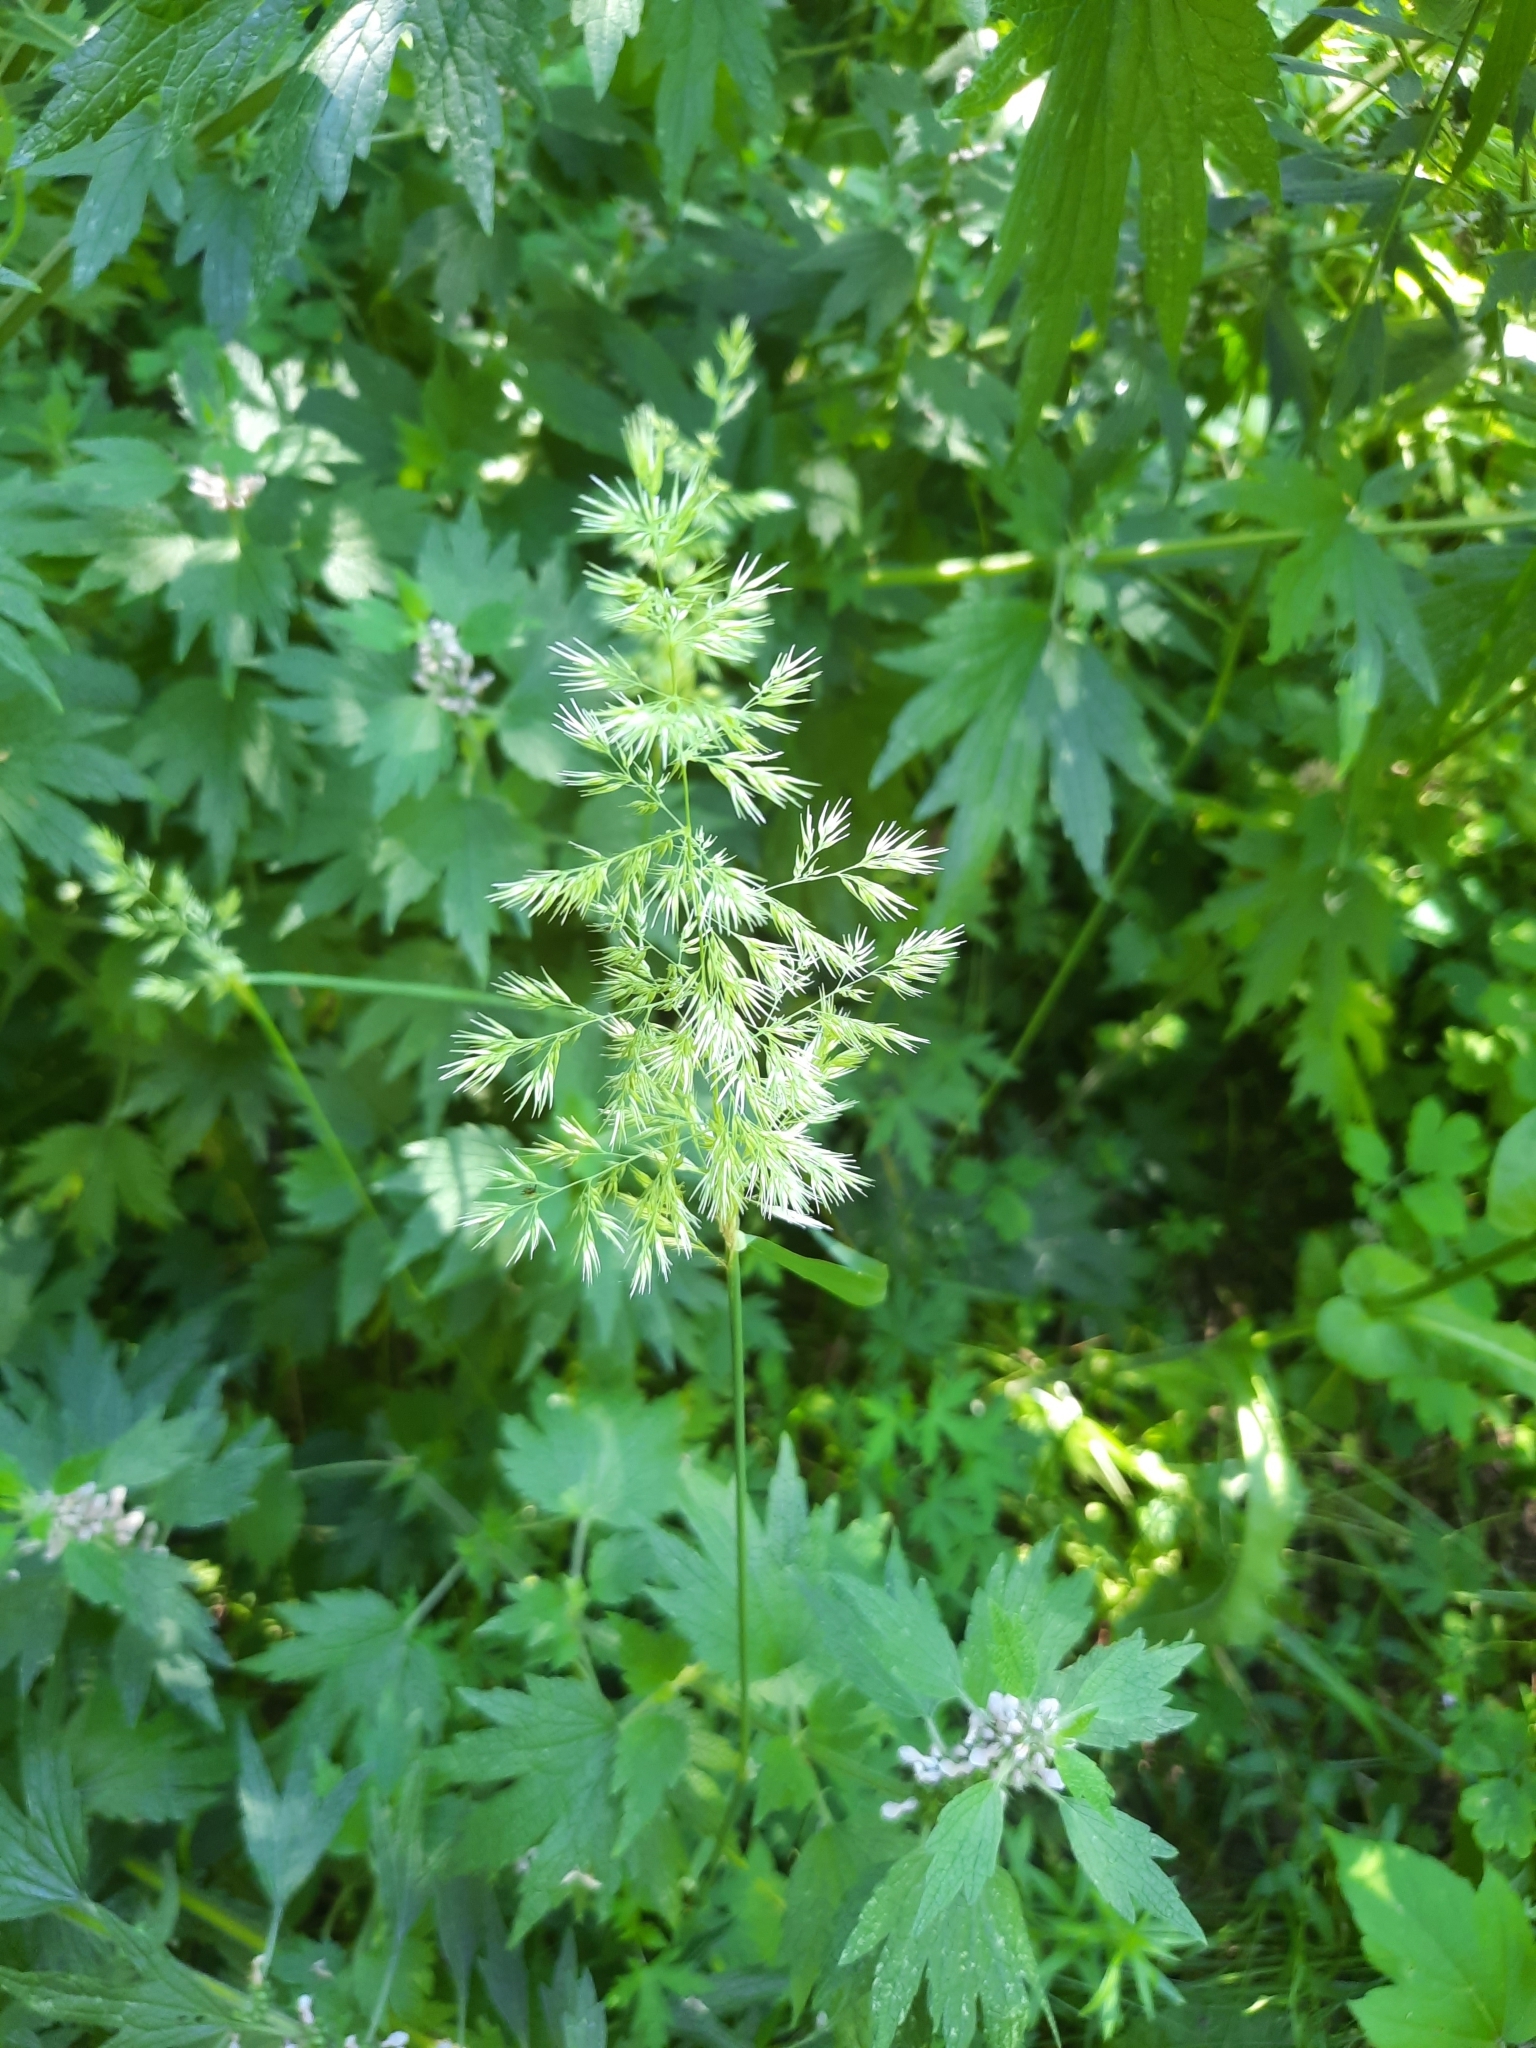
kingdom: Plantae
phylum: Tracheophyta
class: Liliopsida
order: Poales
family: Poaceae
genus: Calamagrostis
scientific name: Calamagrostis epigejos
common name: Wood small-reed
